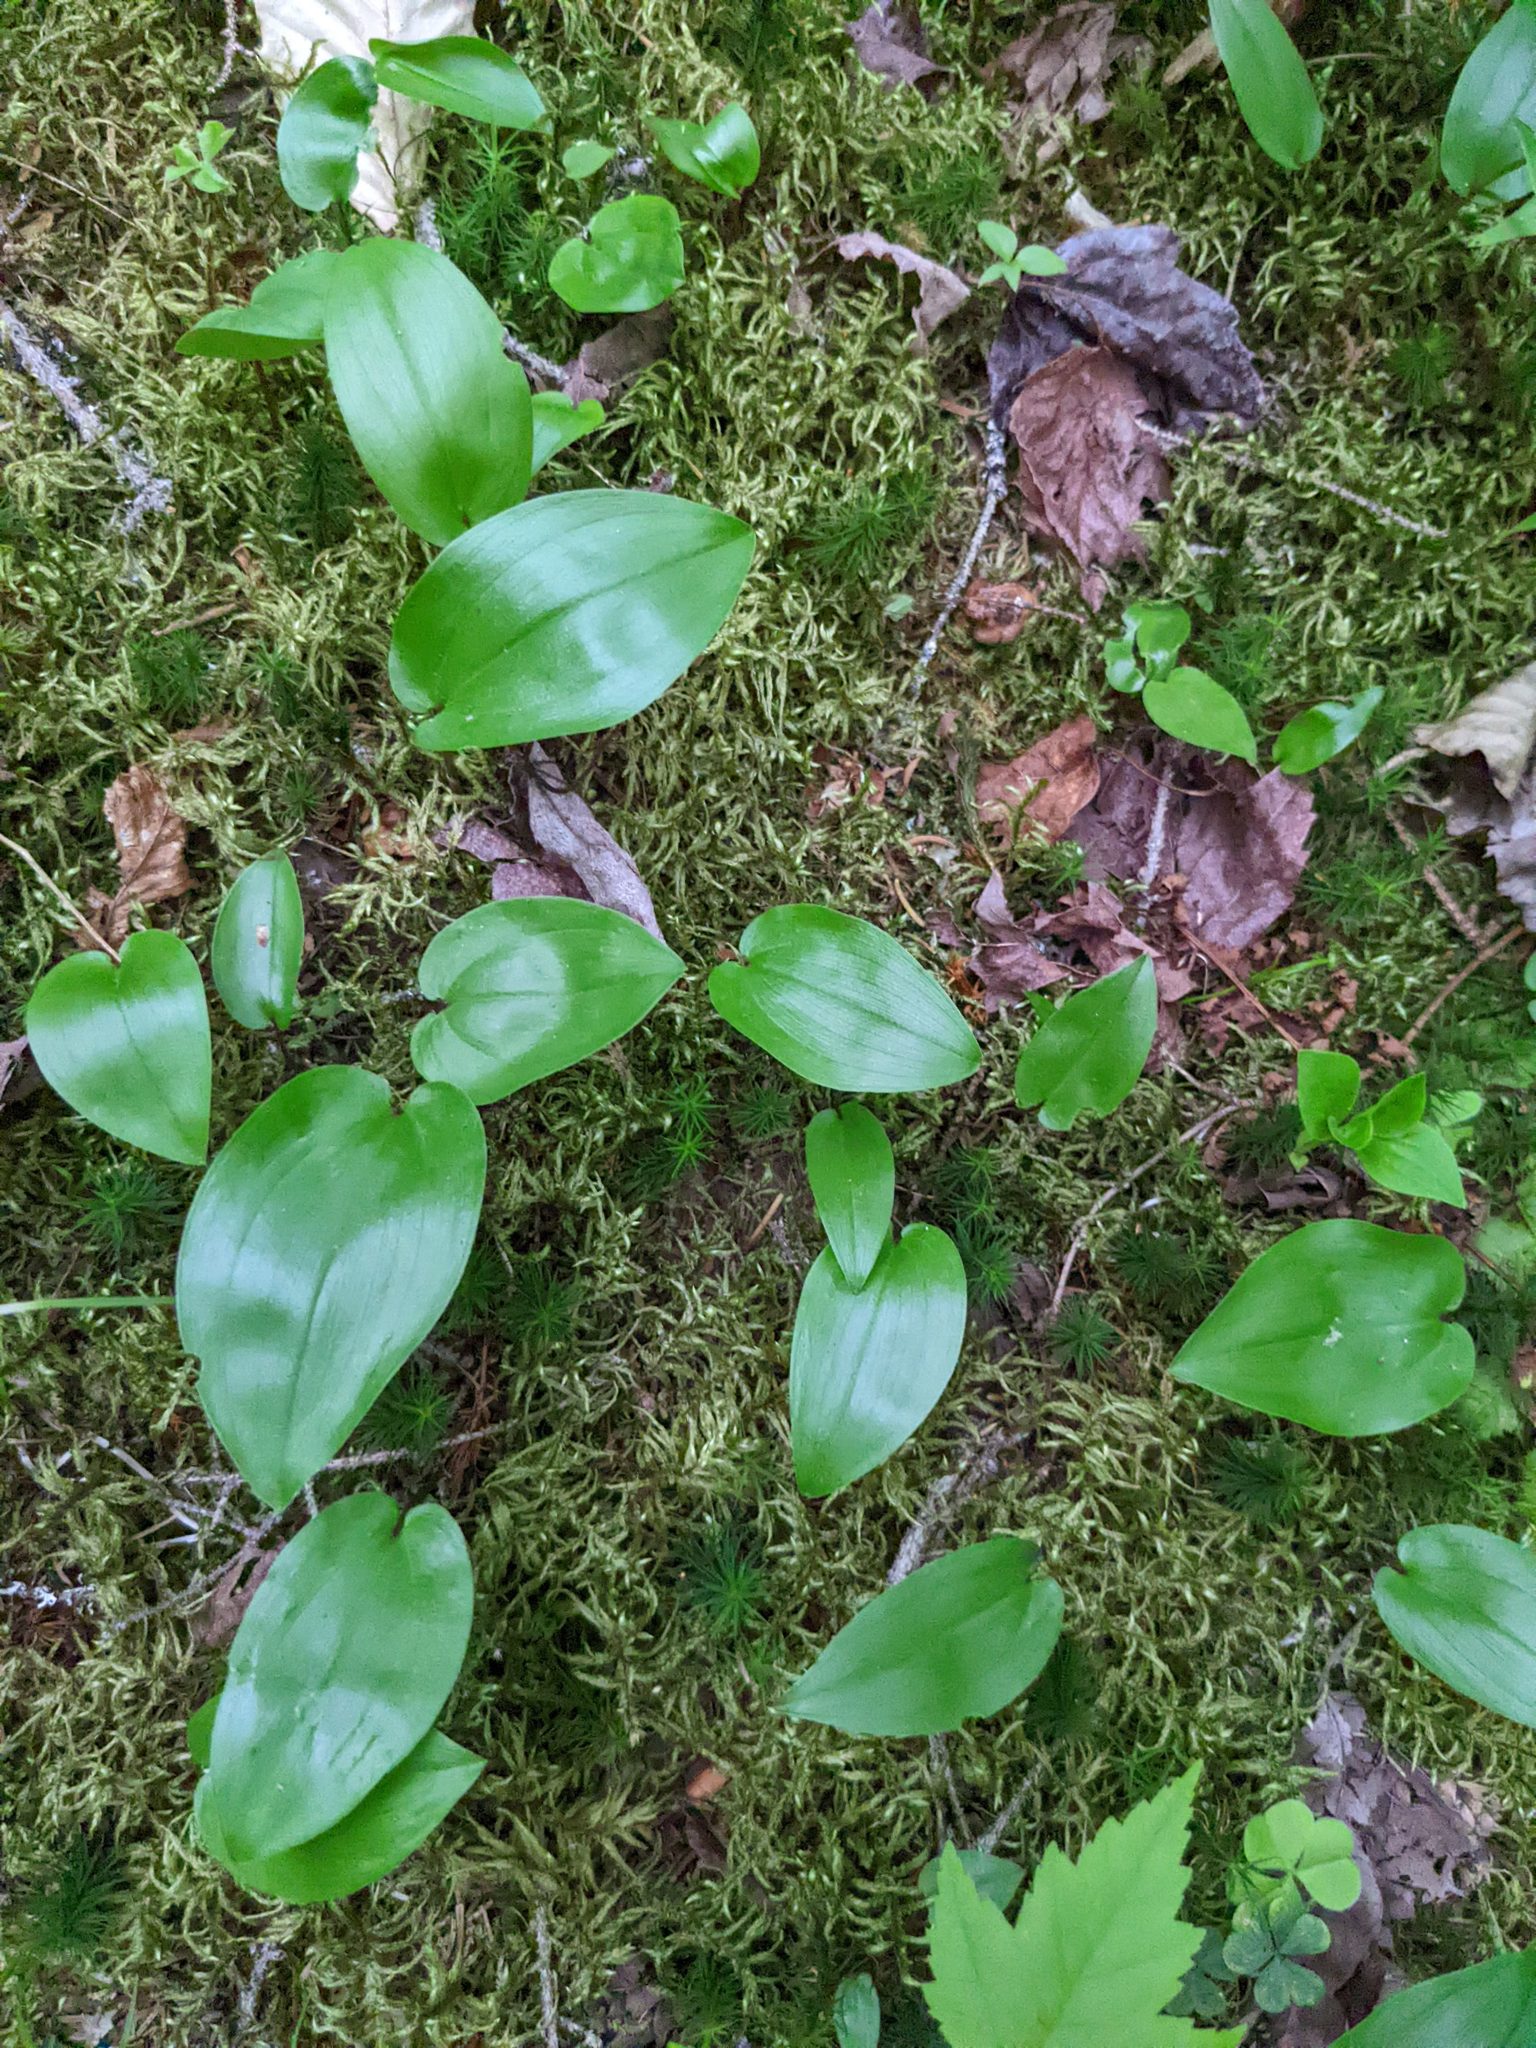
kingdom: Plantae
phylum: Tracheophyta
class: Liliopsida
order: Asparagales
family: Asparagaceae
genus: Maianthemum
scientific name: Maianthemum canadense
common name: False lily-of-the-valley
